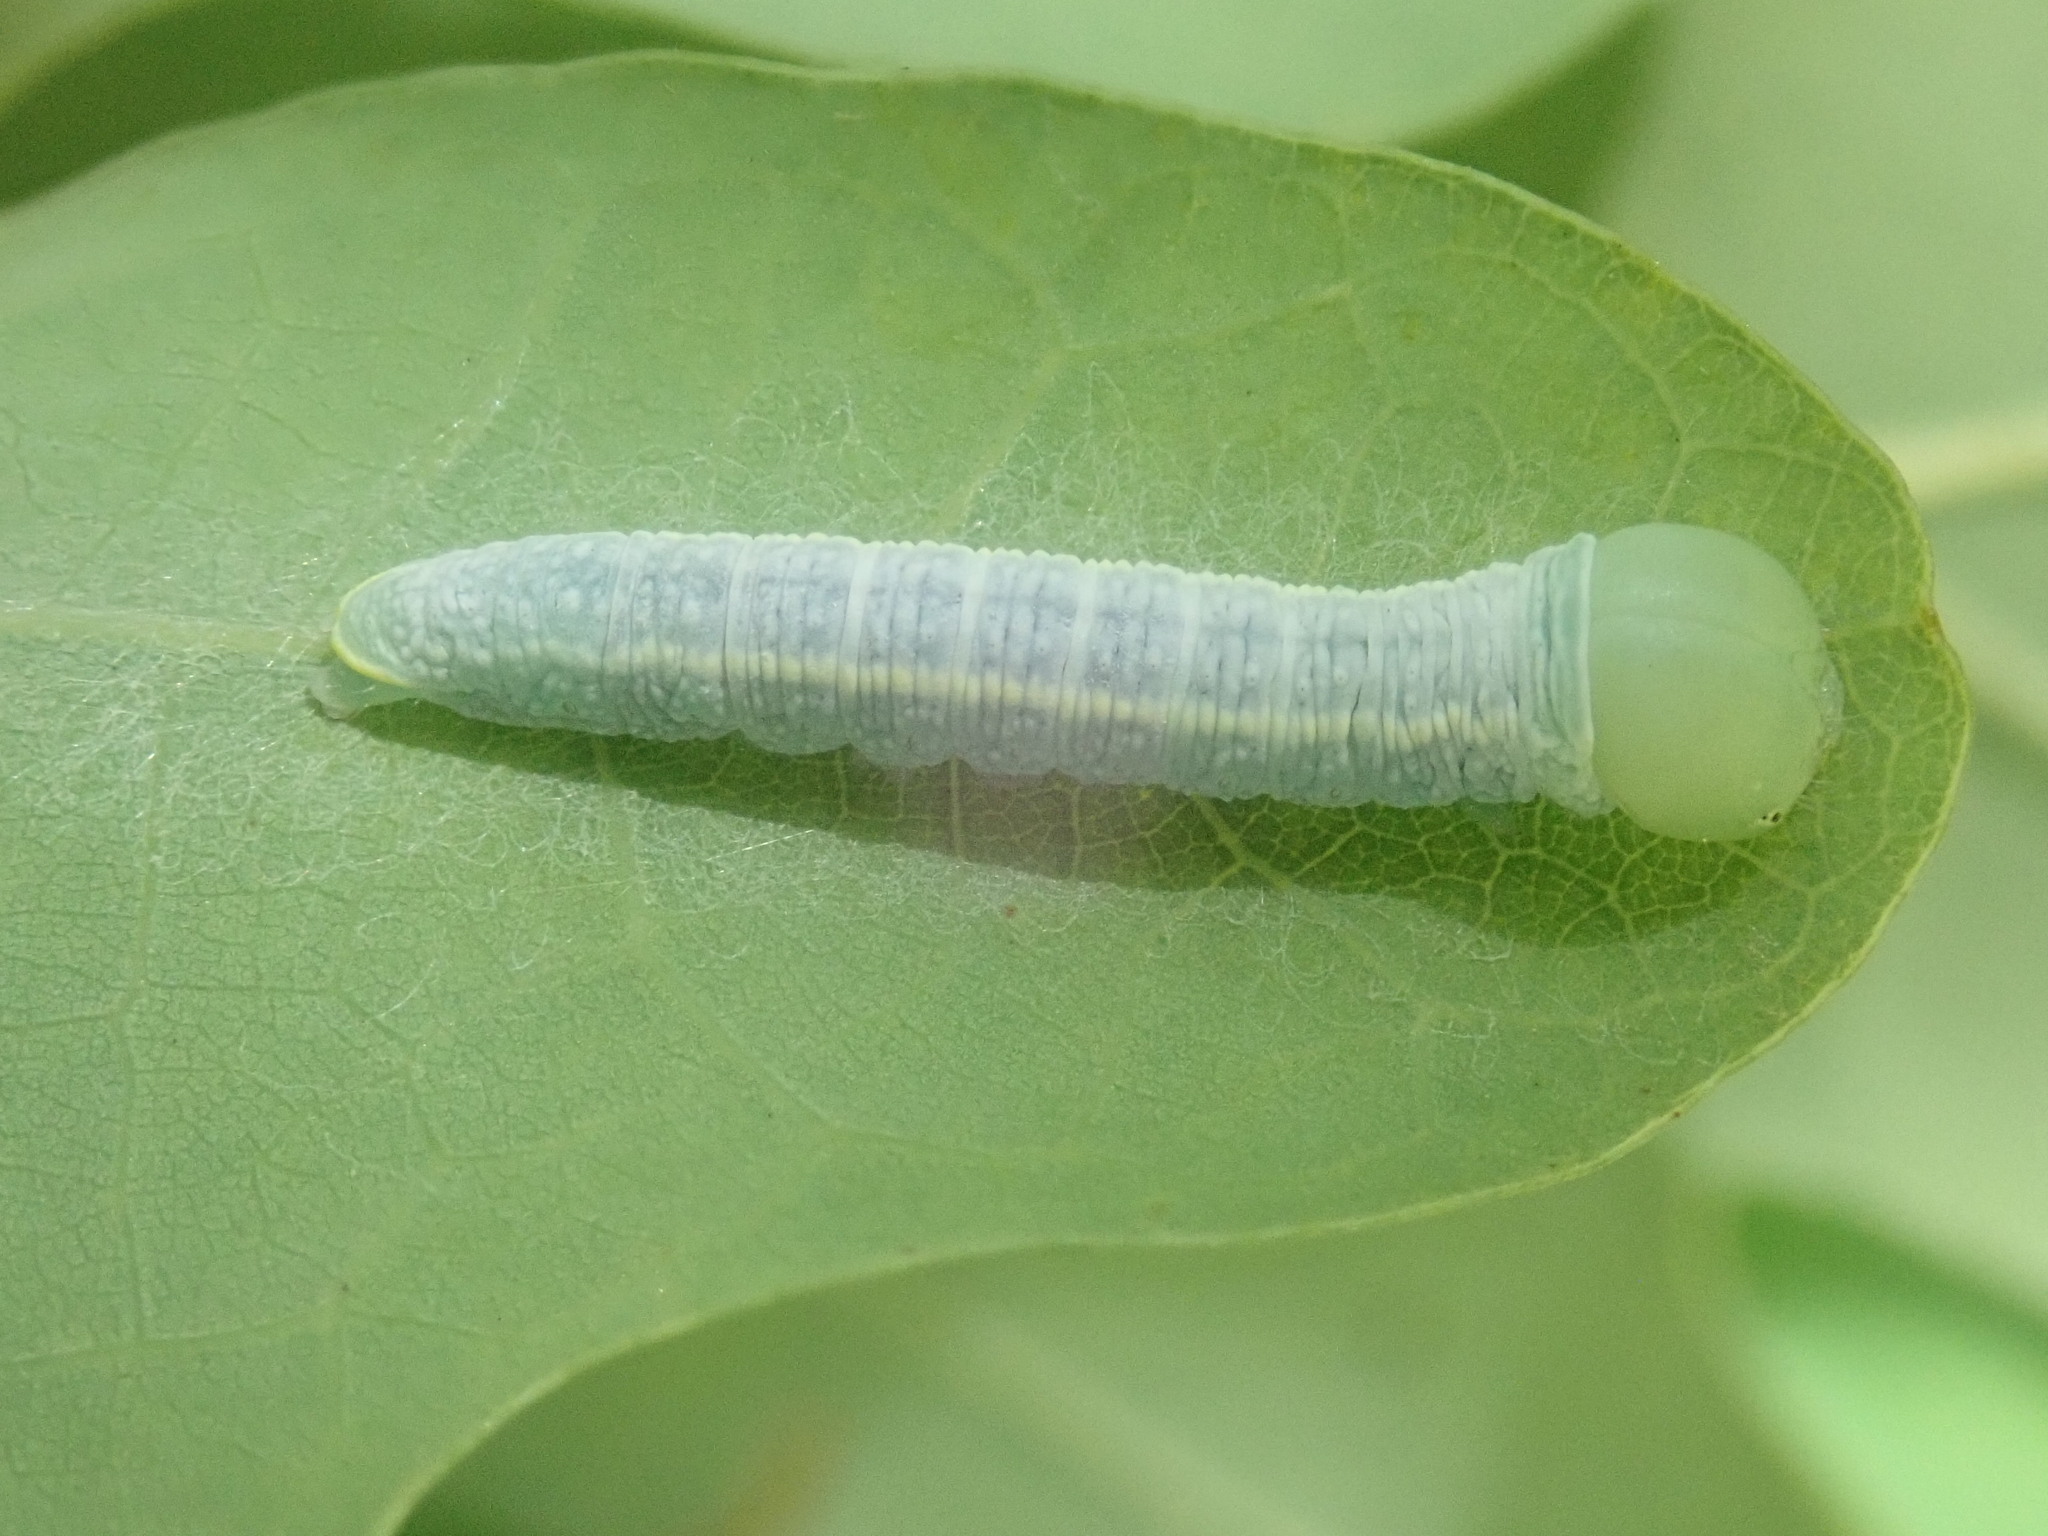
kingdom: Animalia
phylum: Arthropoda
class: Insecta
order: Lepidoptera
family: Notodontidae
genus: Nadata
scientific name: Nadata gibbosa
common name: White-dotted prominent
